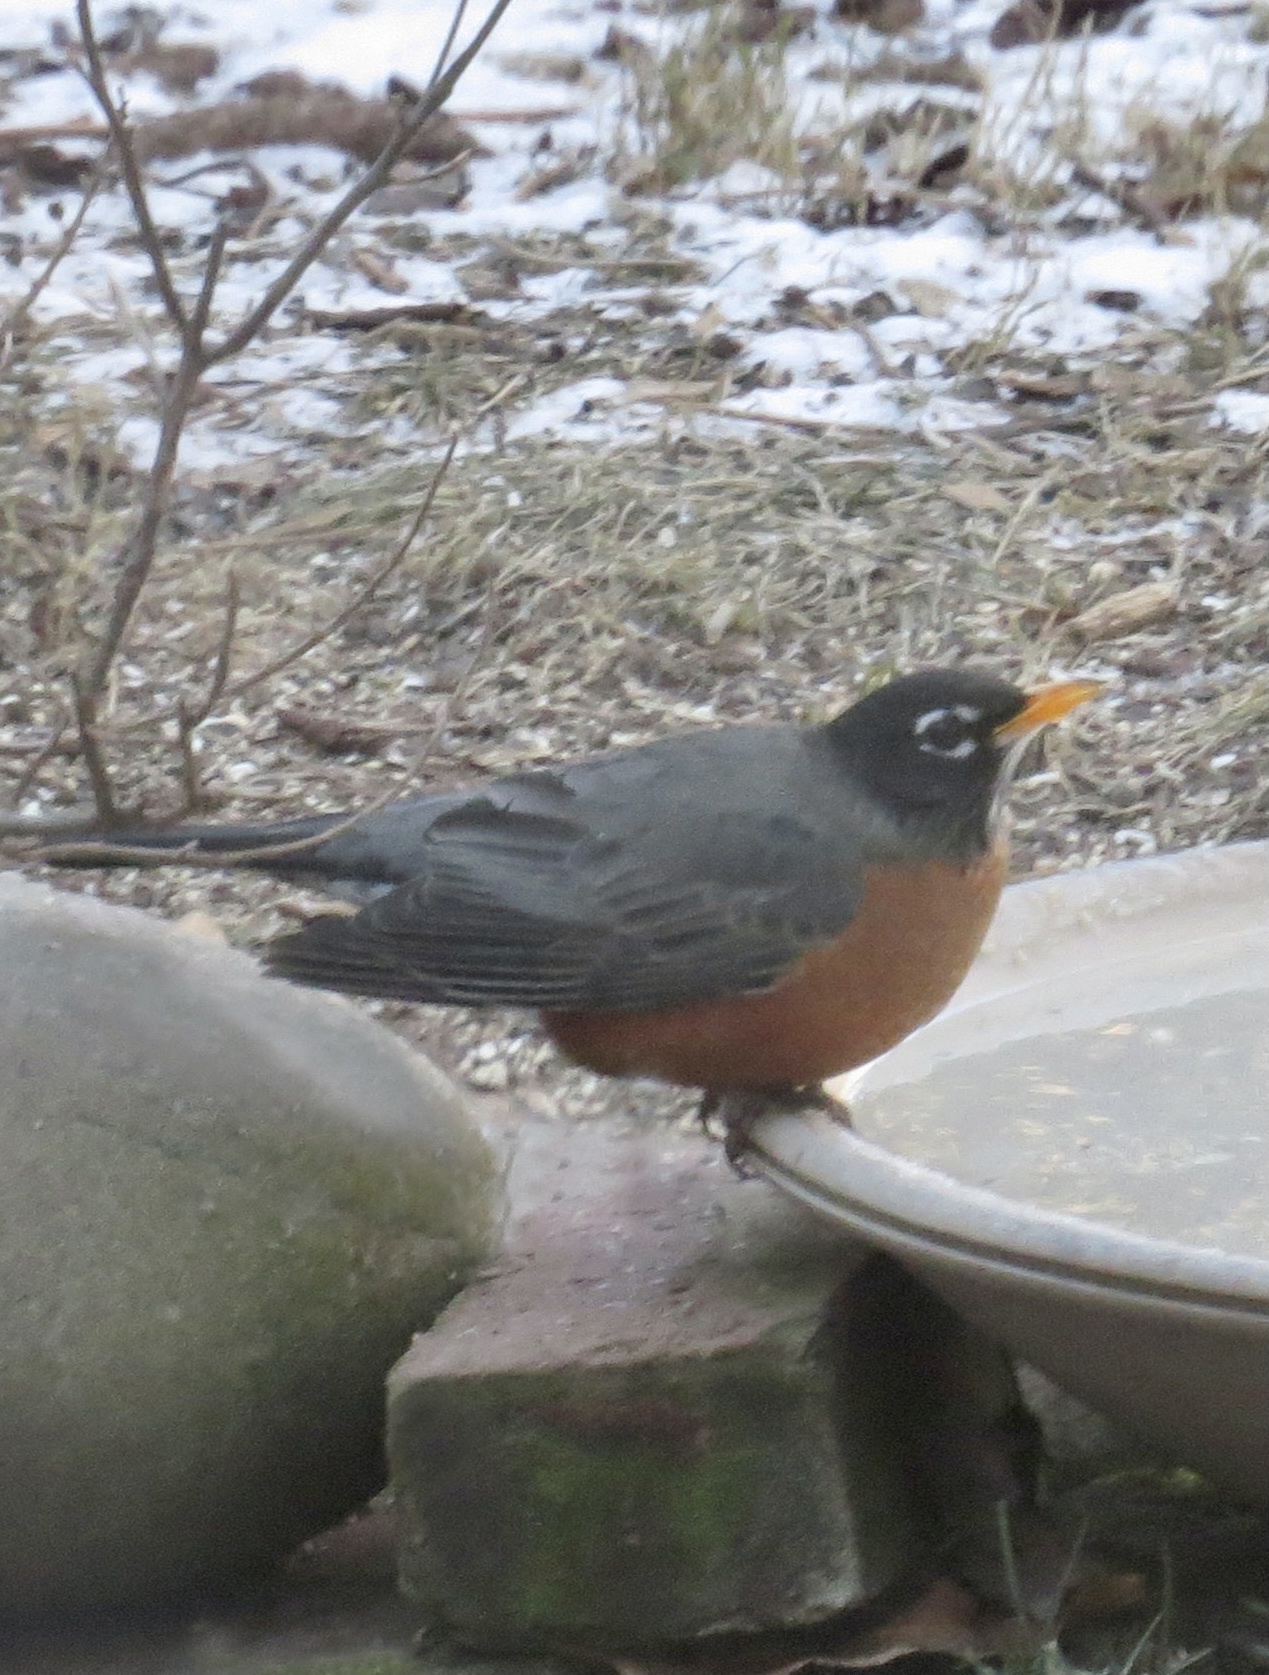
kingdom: Animalia
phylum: Chordata
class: Aves
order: Passeriformes
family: Turdidae
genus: Turdus
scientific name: Turdus migratorius
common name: American robin
